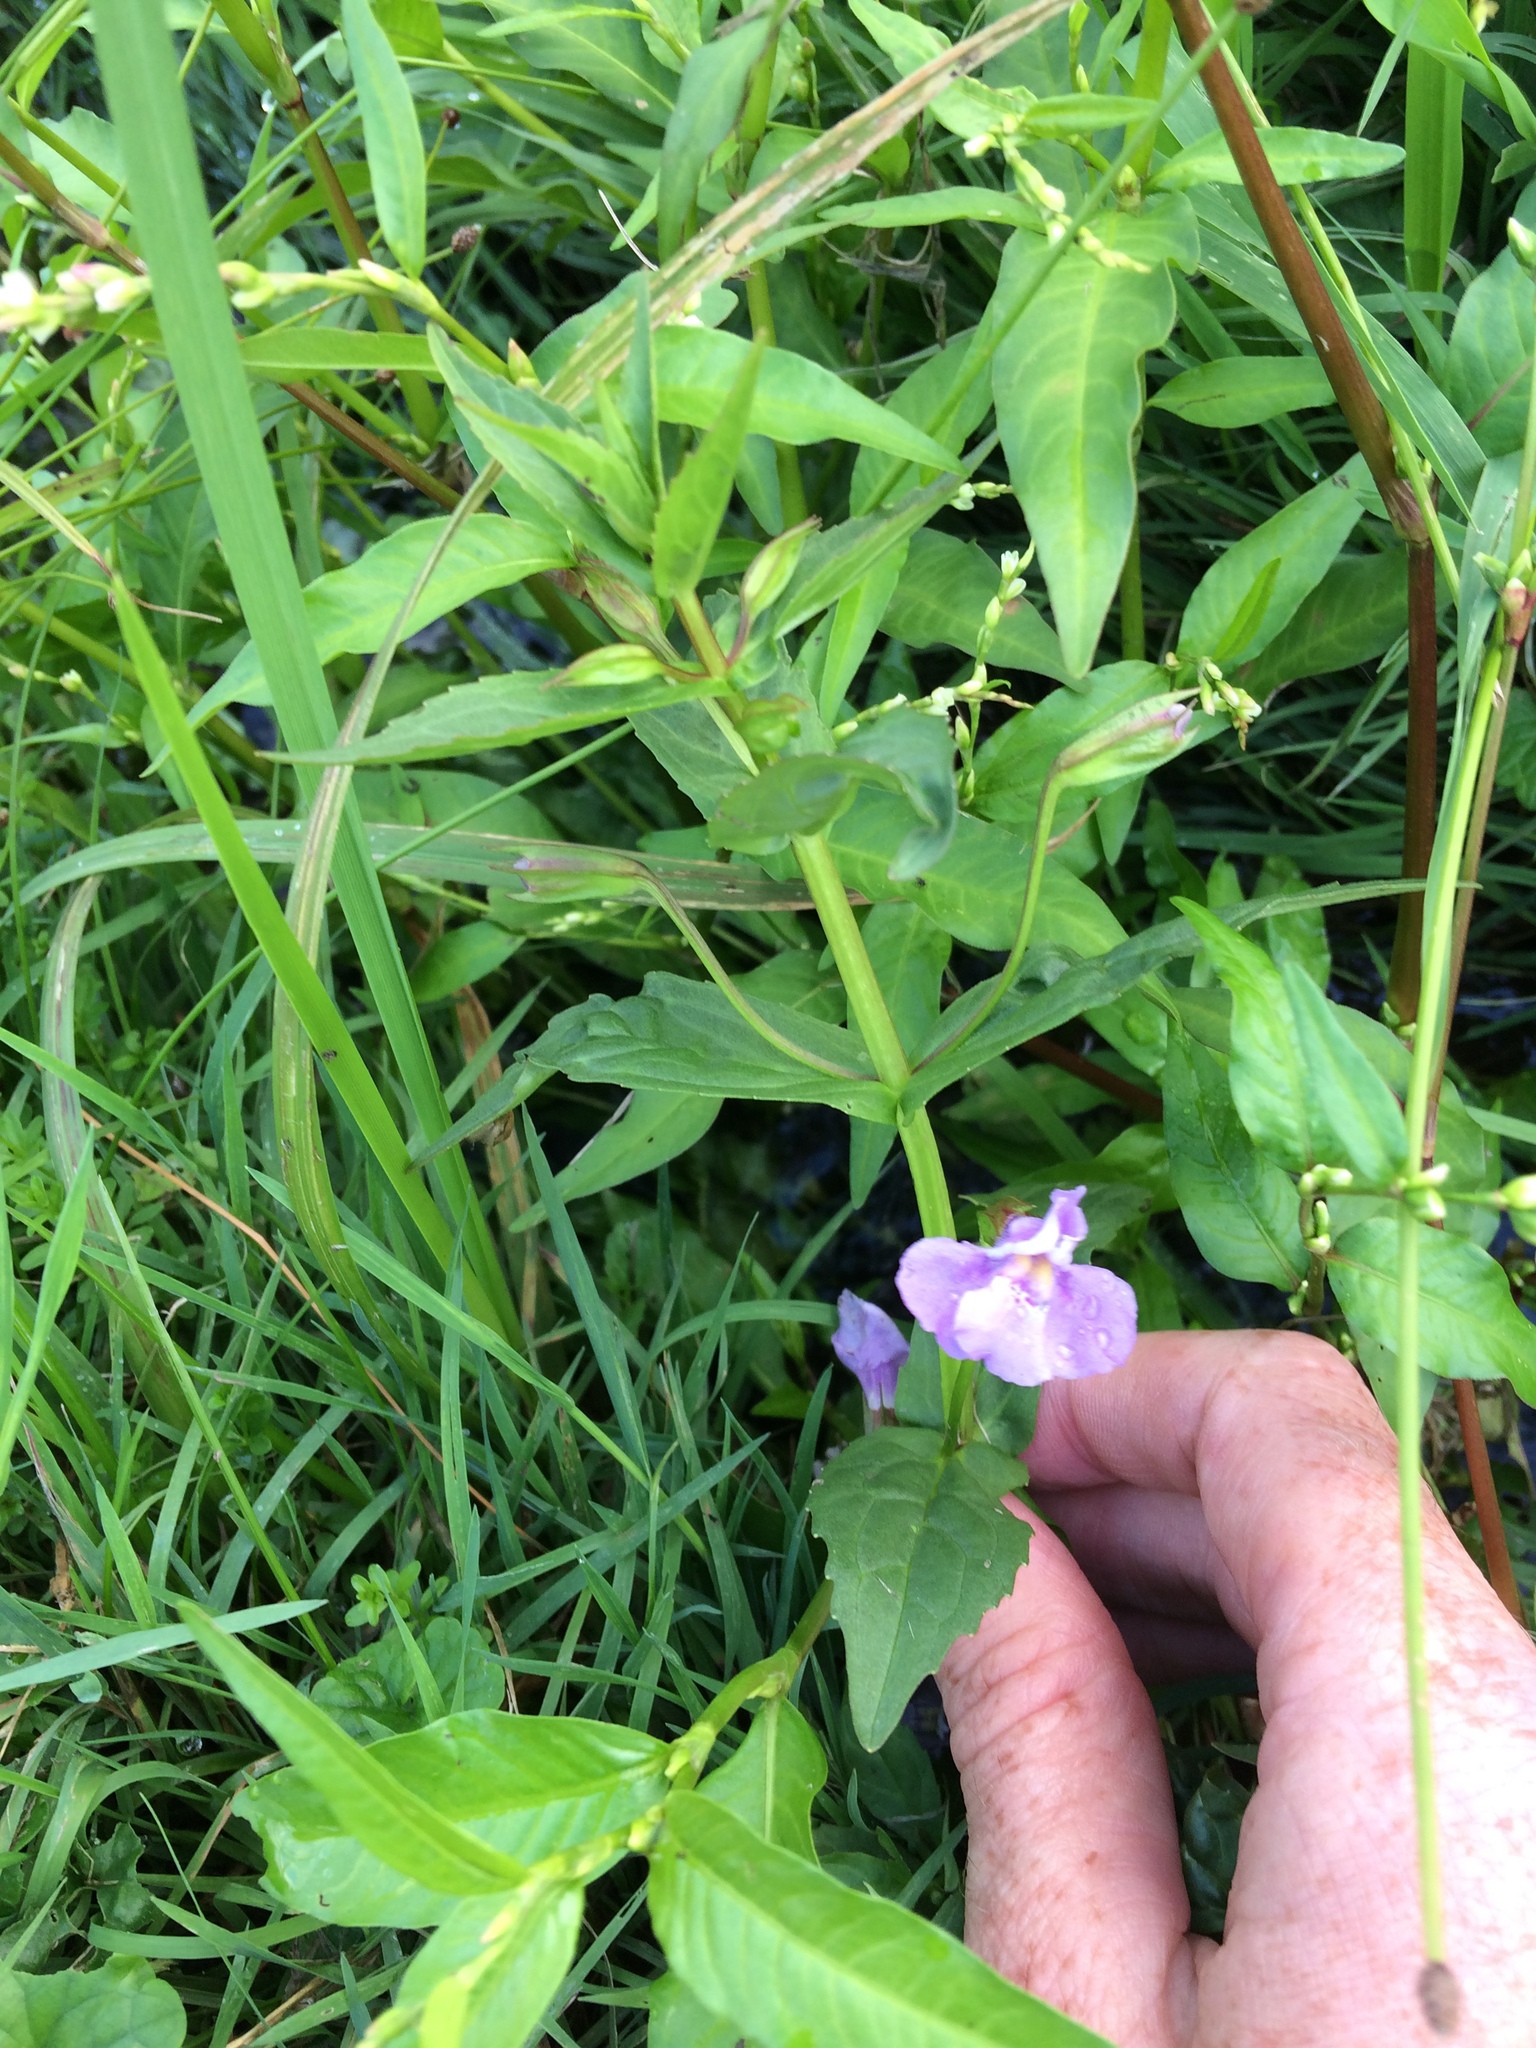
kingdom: Plantae
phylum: Tracheophyta
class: Magnoliopsida
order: Lamiales
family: Phrymaceae
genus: Mimulus
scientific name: Mimulus ringens
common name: Allegheny monkeyflower
